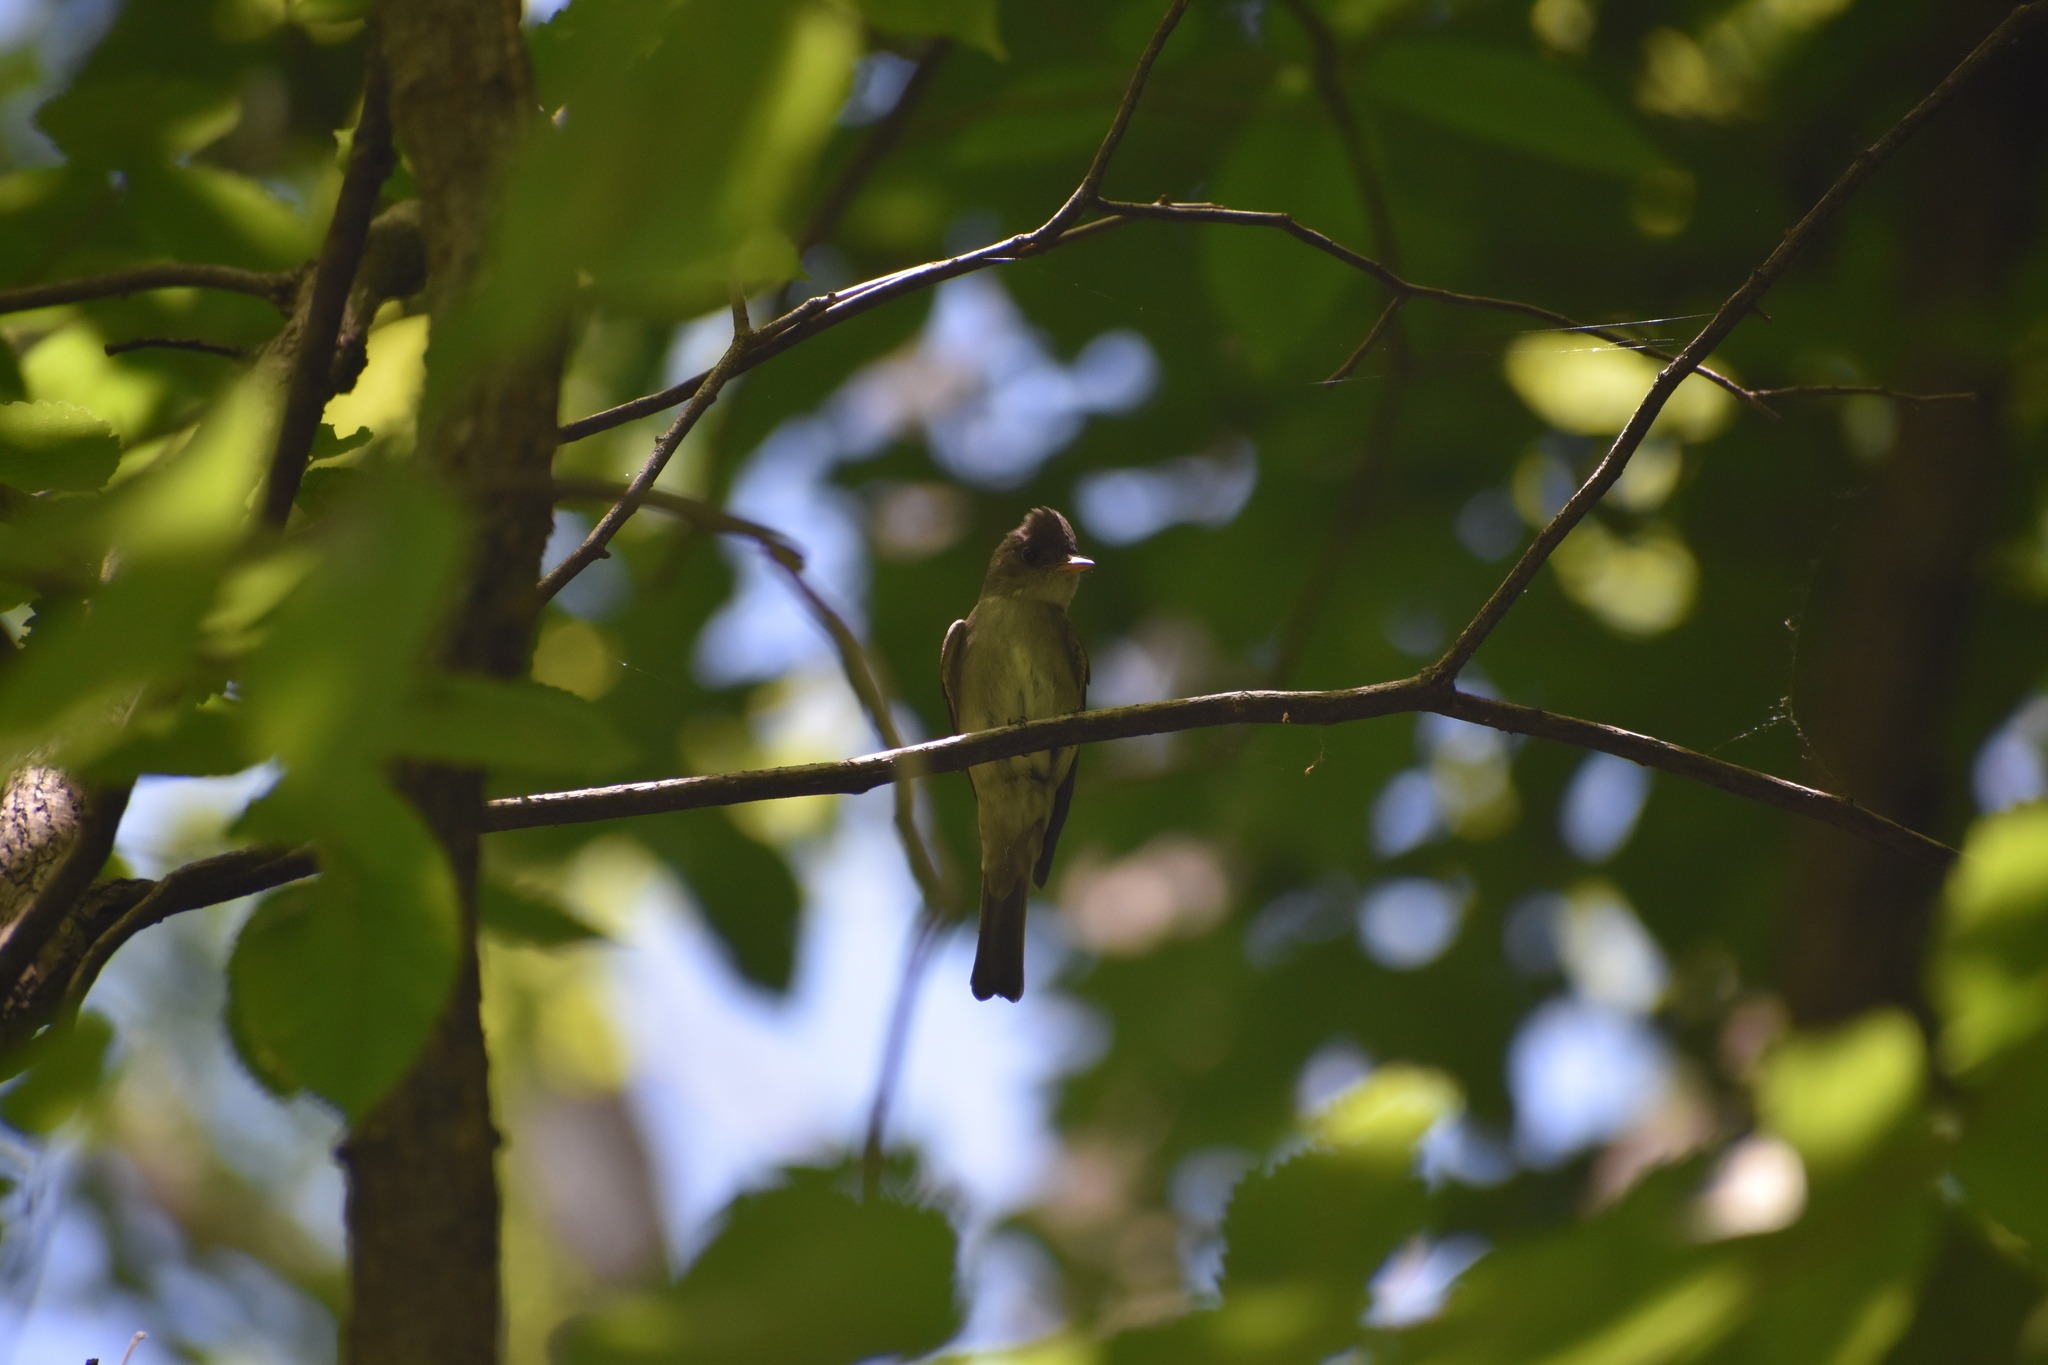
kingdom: Animalia
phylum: Chordata
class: Aves
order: Passeriformes
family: Tyrannidae
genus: Contopus
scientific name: Contopus virens
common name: Eastern wood-pewee
